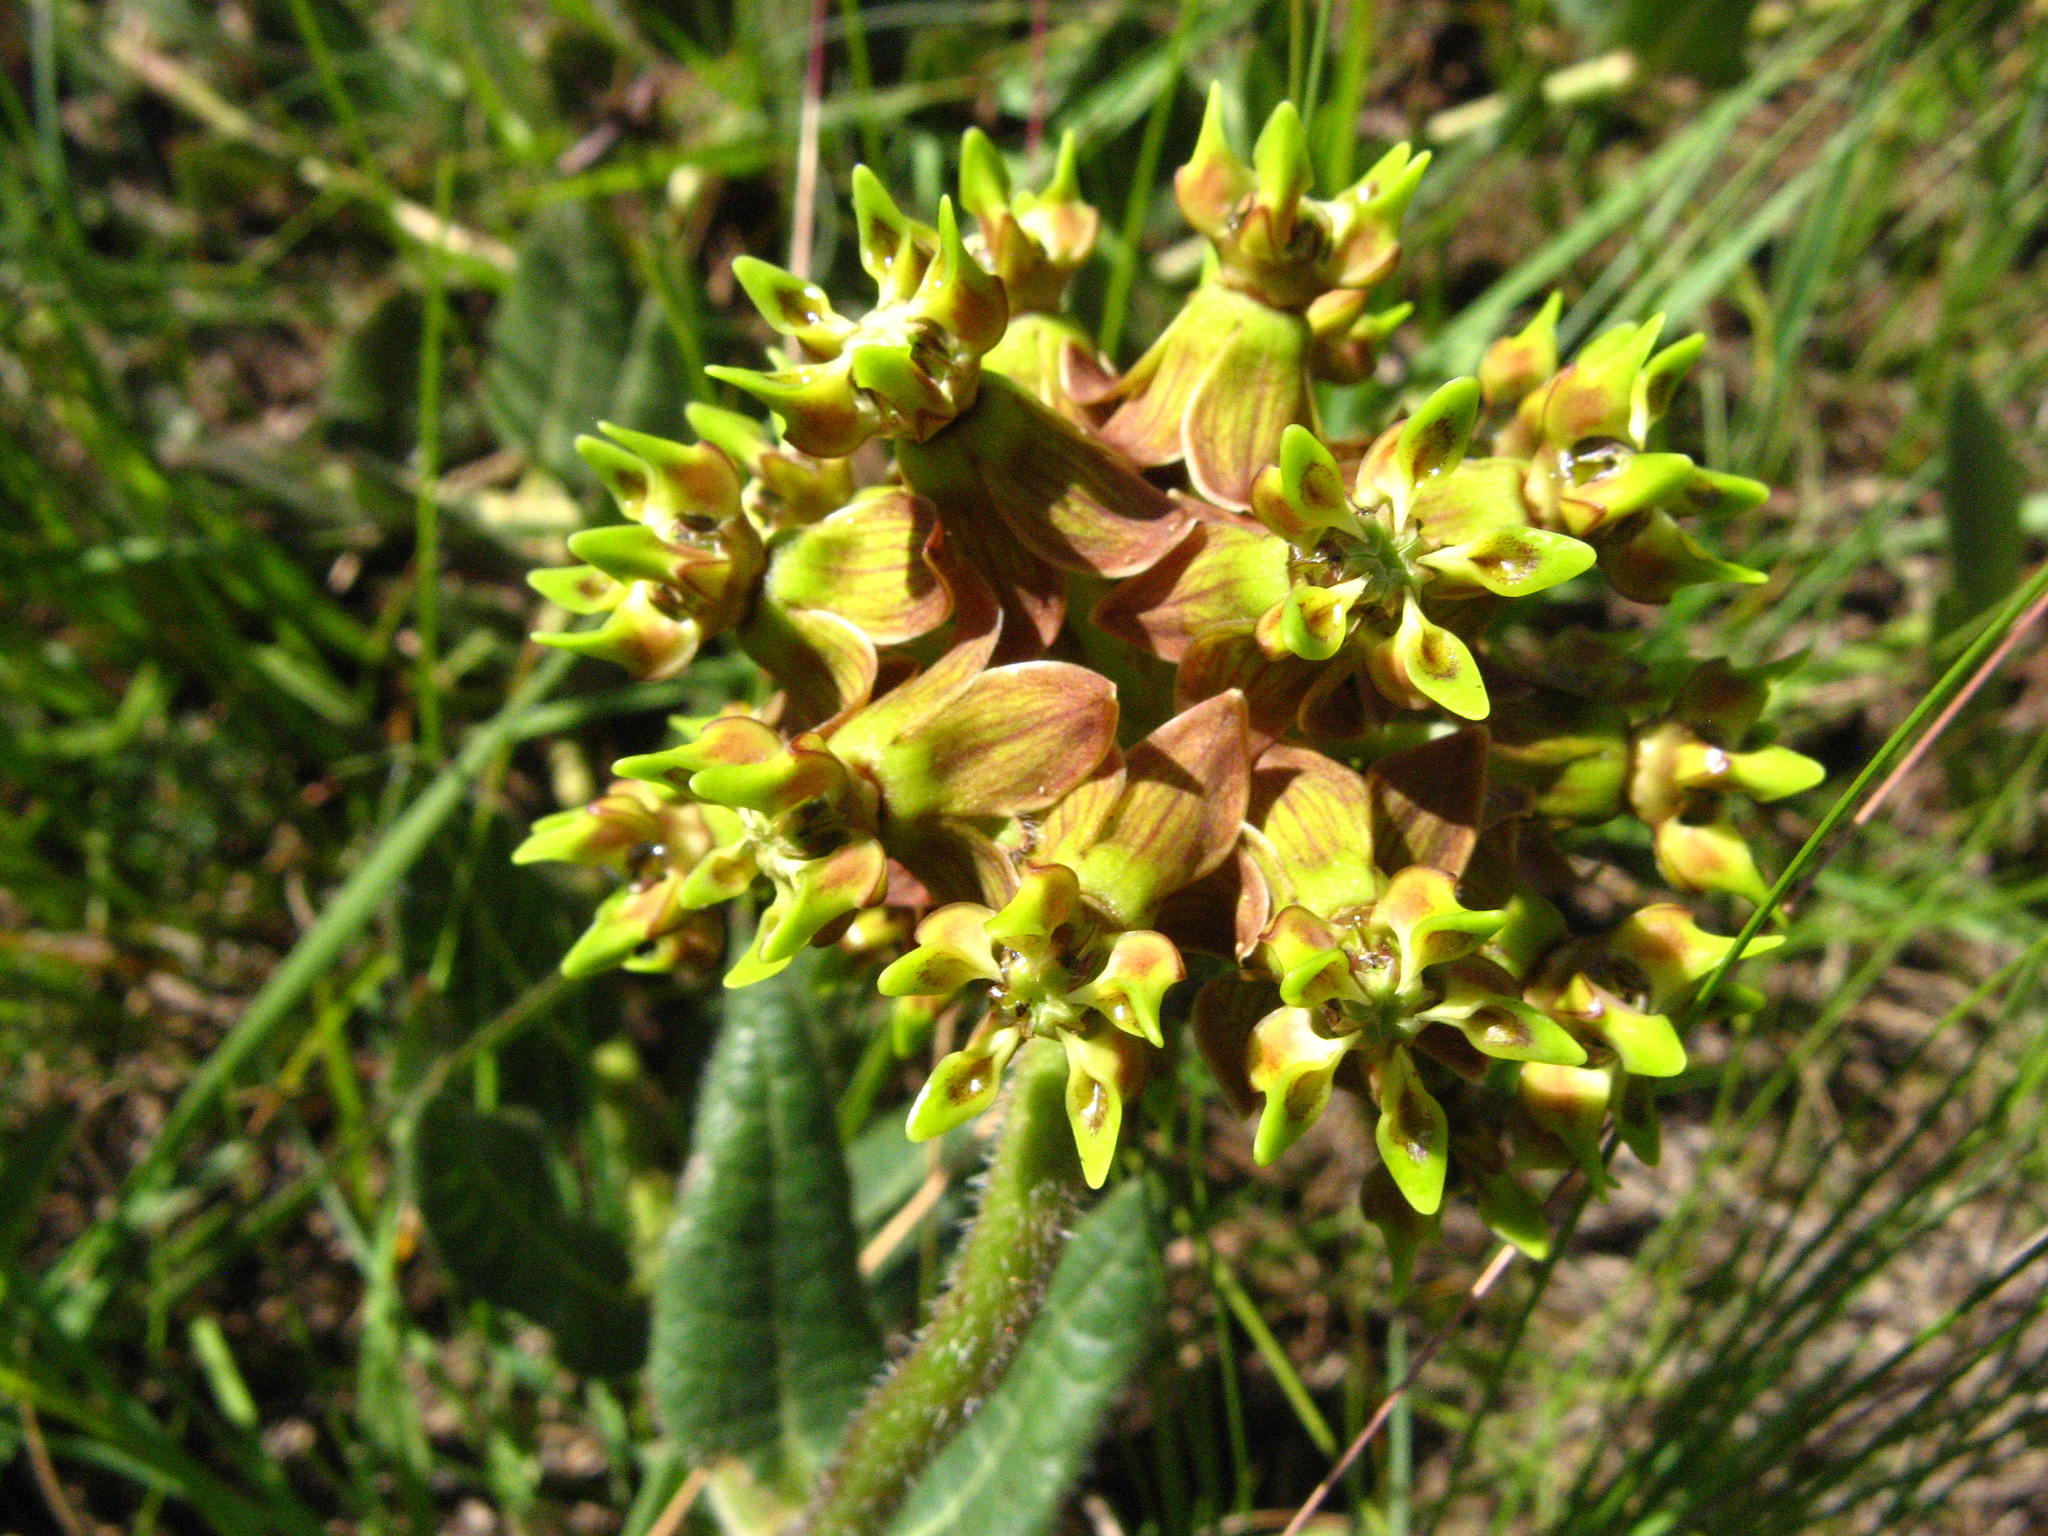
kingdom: Plantae
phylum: Tracheophyta
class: Magnoliopsida
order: Gentianales
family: Apocynaceae
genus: Asclepias
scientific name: Asclepias macropus
